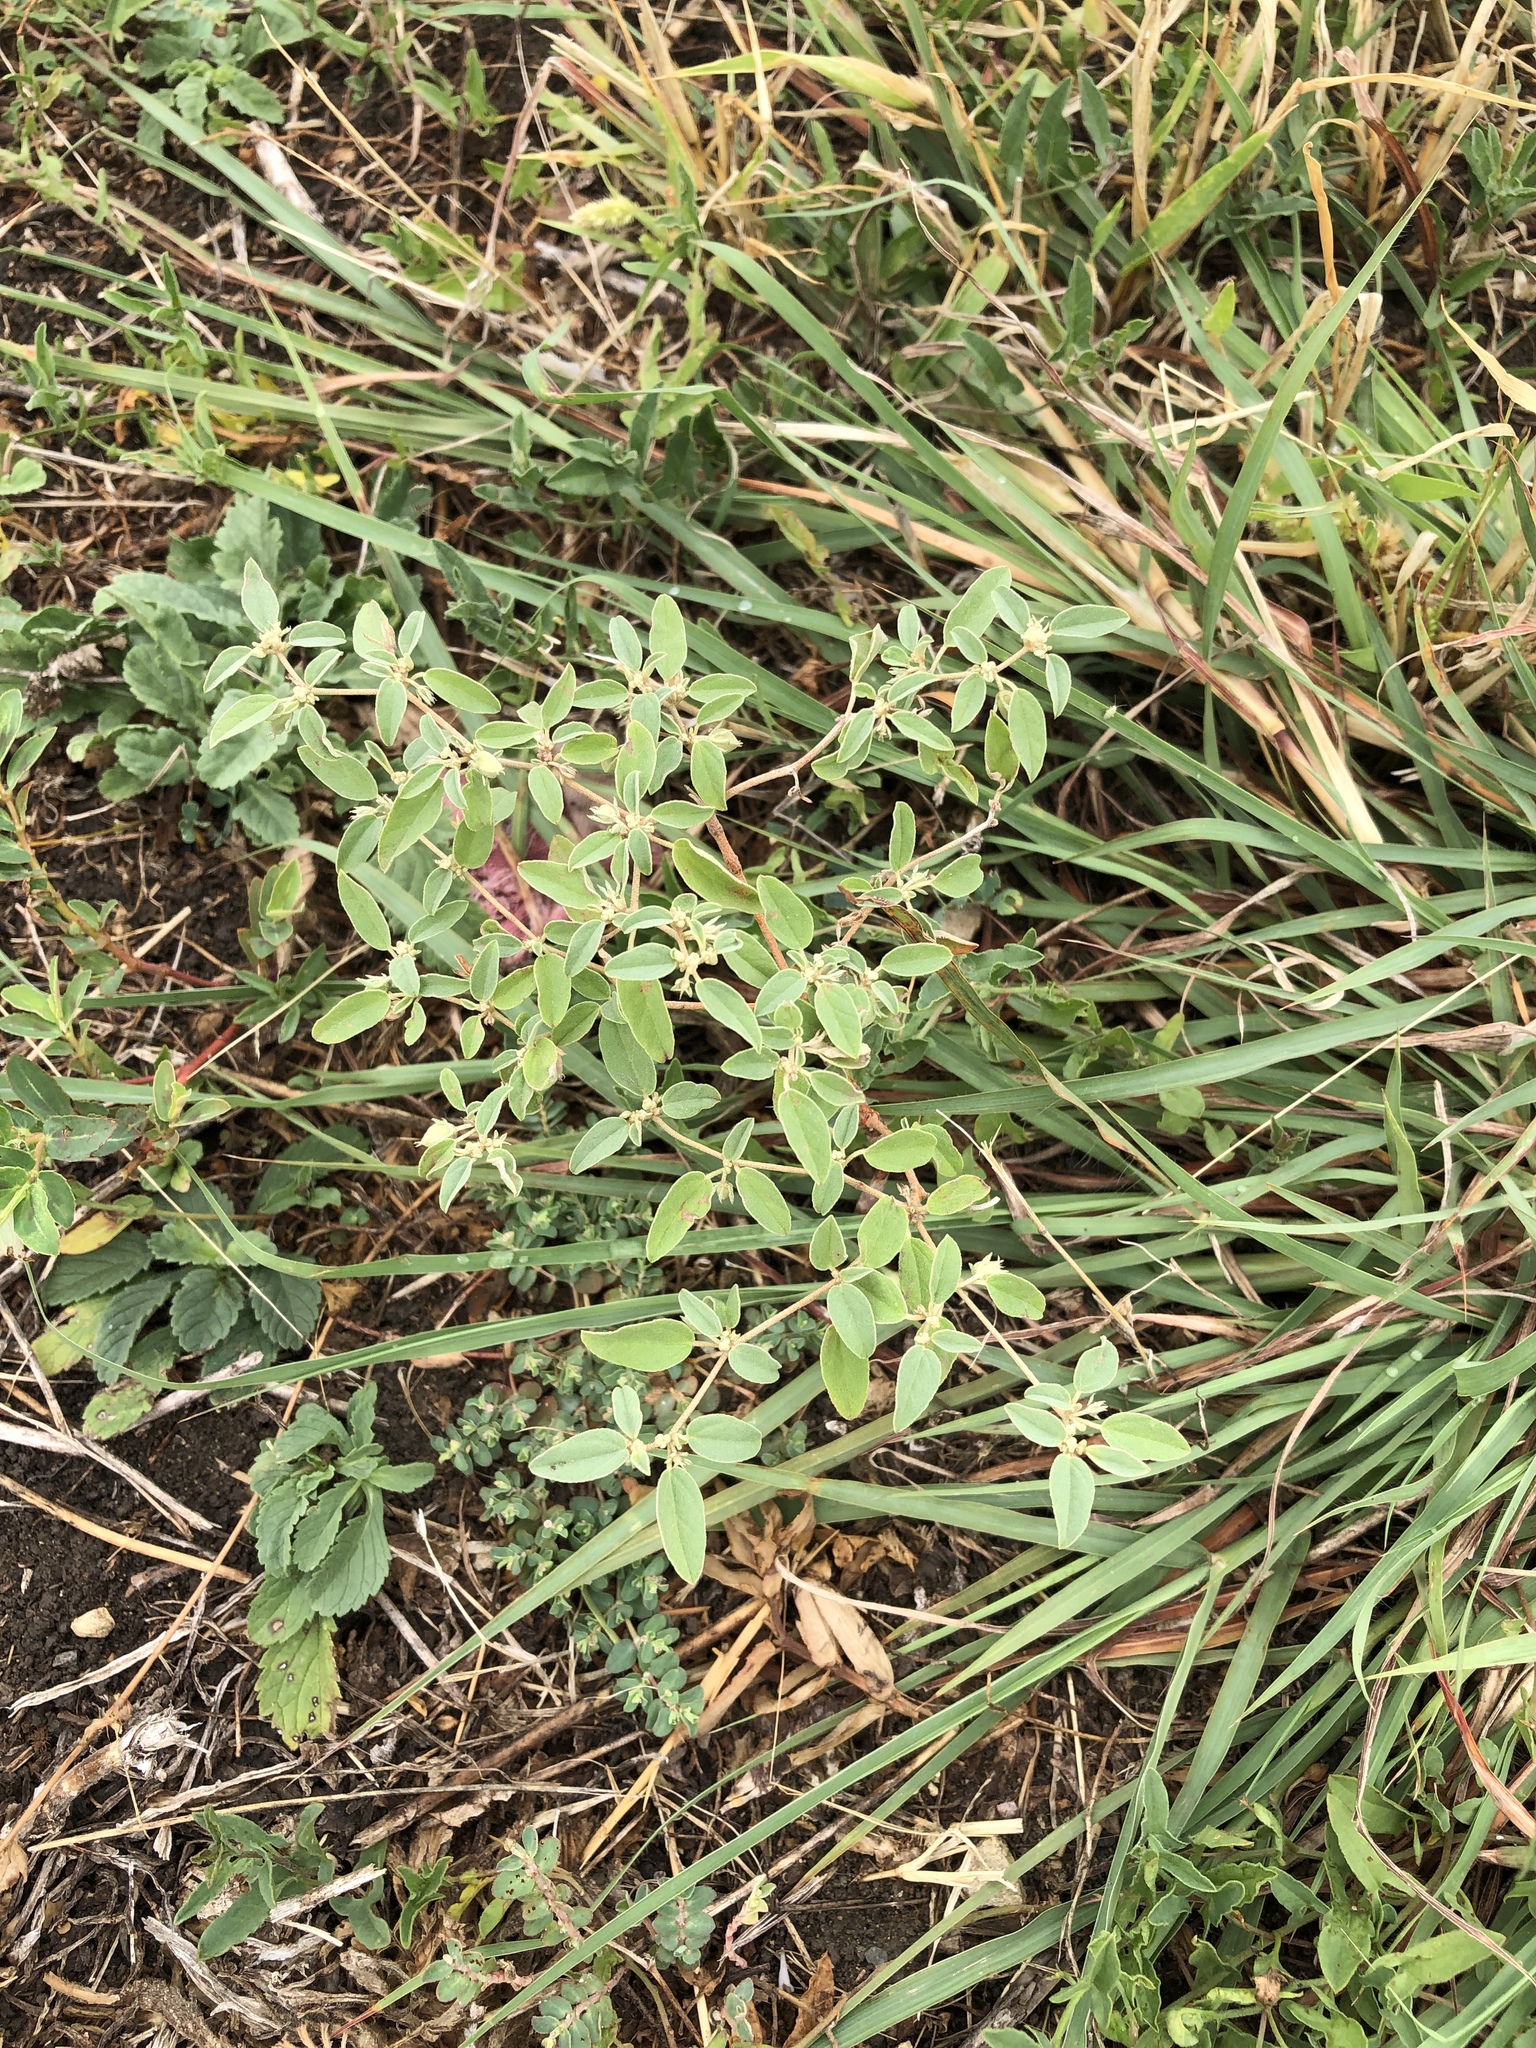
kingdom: Plantae
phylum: Tracheophyta
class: Magnoliopsida
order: Malpighiales
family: Euphorbiaceae
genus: Croton
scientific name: Croton monanthogynus
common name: One-seed croton
